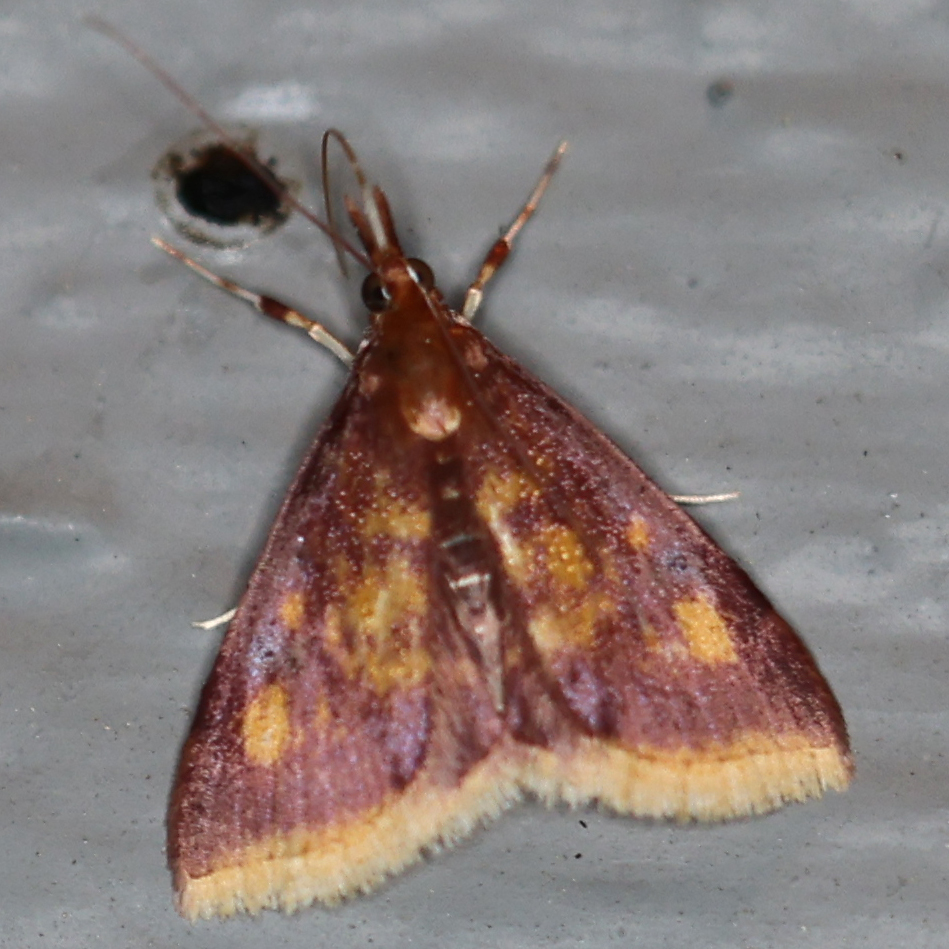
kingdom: Animalia
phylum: Arthropoda
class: Insecta
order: Lepidoptera
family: Crambidae
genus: Pyrausta
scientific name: Pyrausta acrionalis
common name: Mint-loving pyrausta moth
